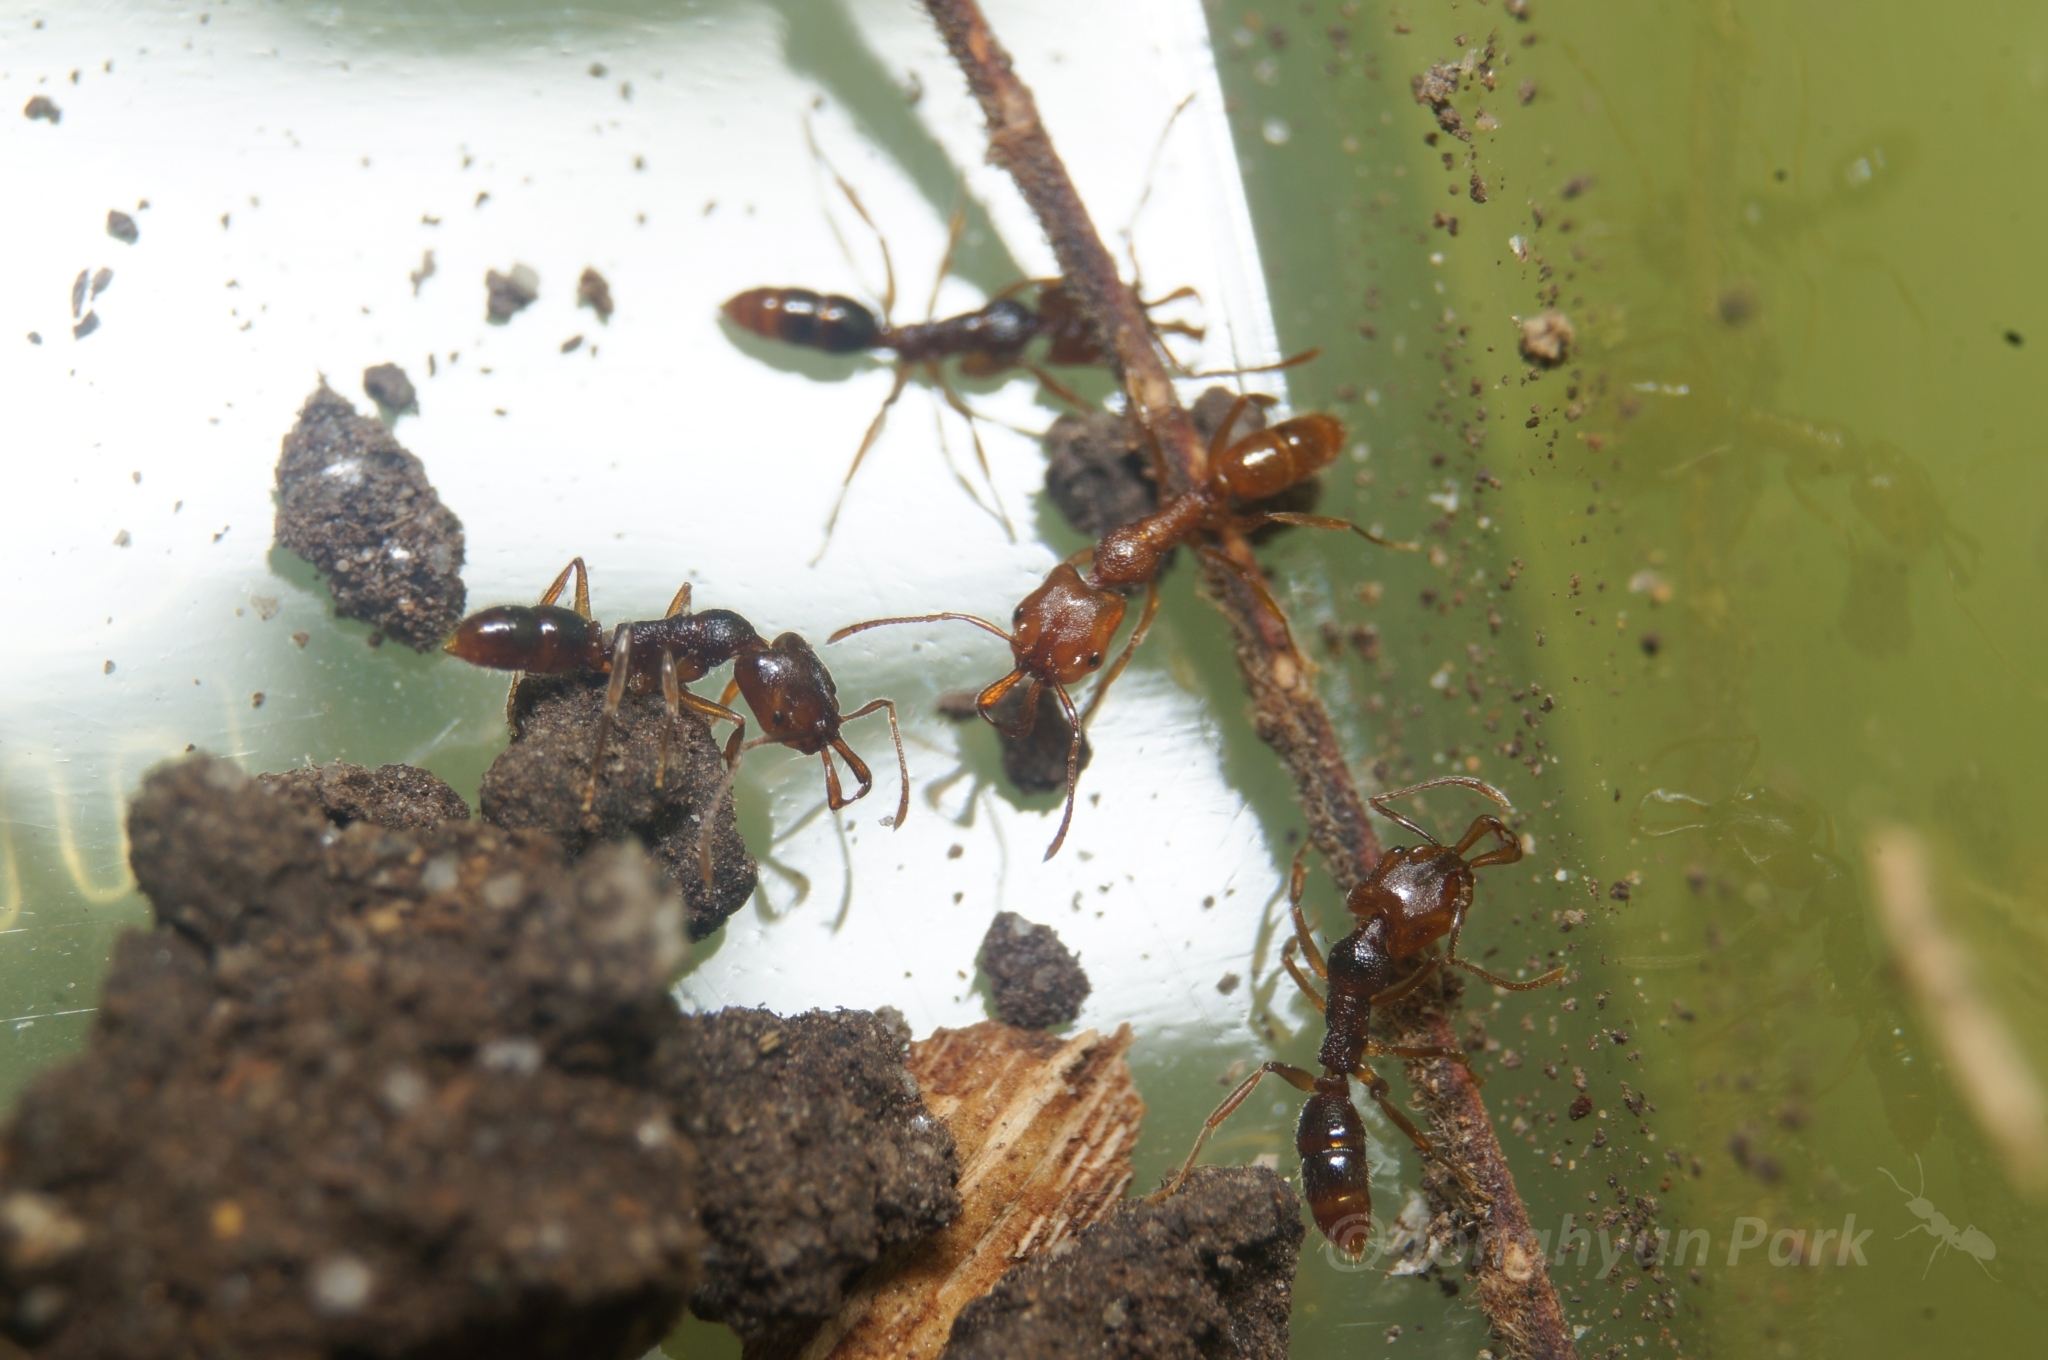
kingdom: Animalia
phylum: Arthropoda
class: Insecta
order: Hymenoptera
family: Formicidae
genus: Anochetus
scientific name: Anochetus graeffei
